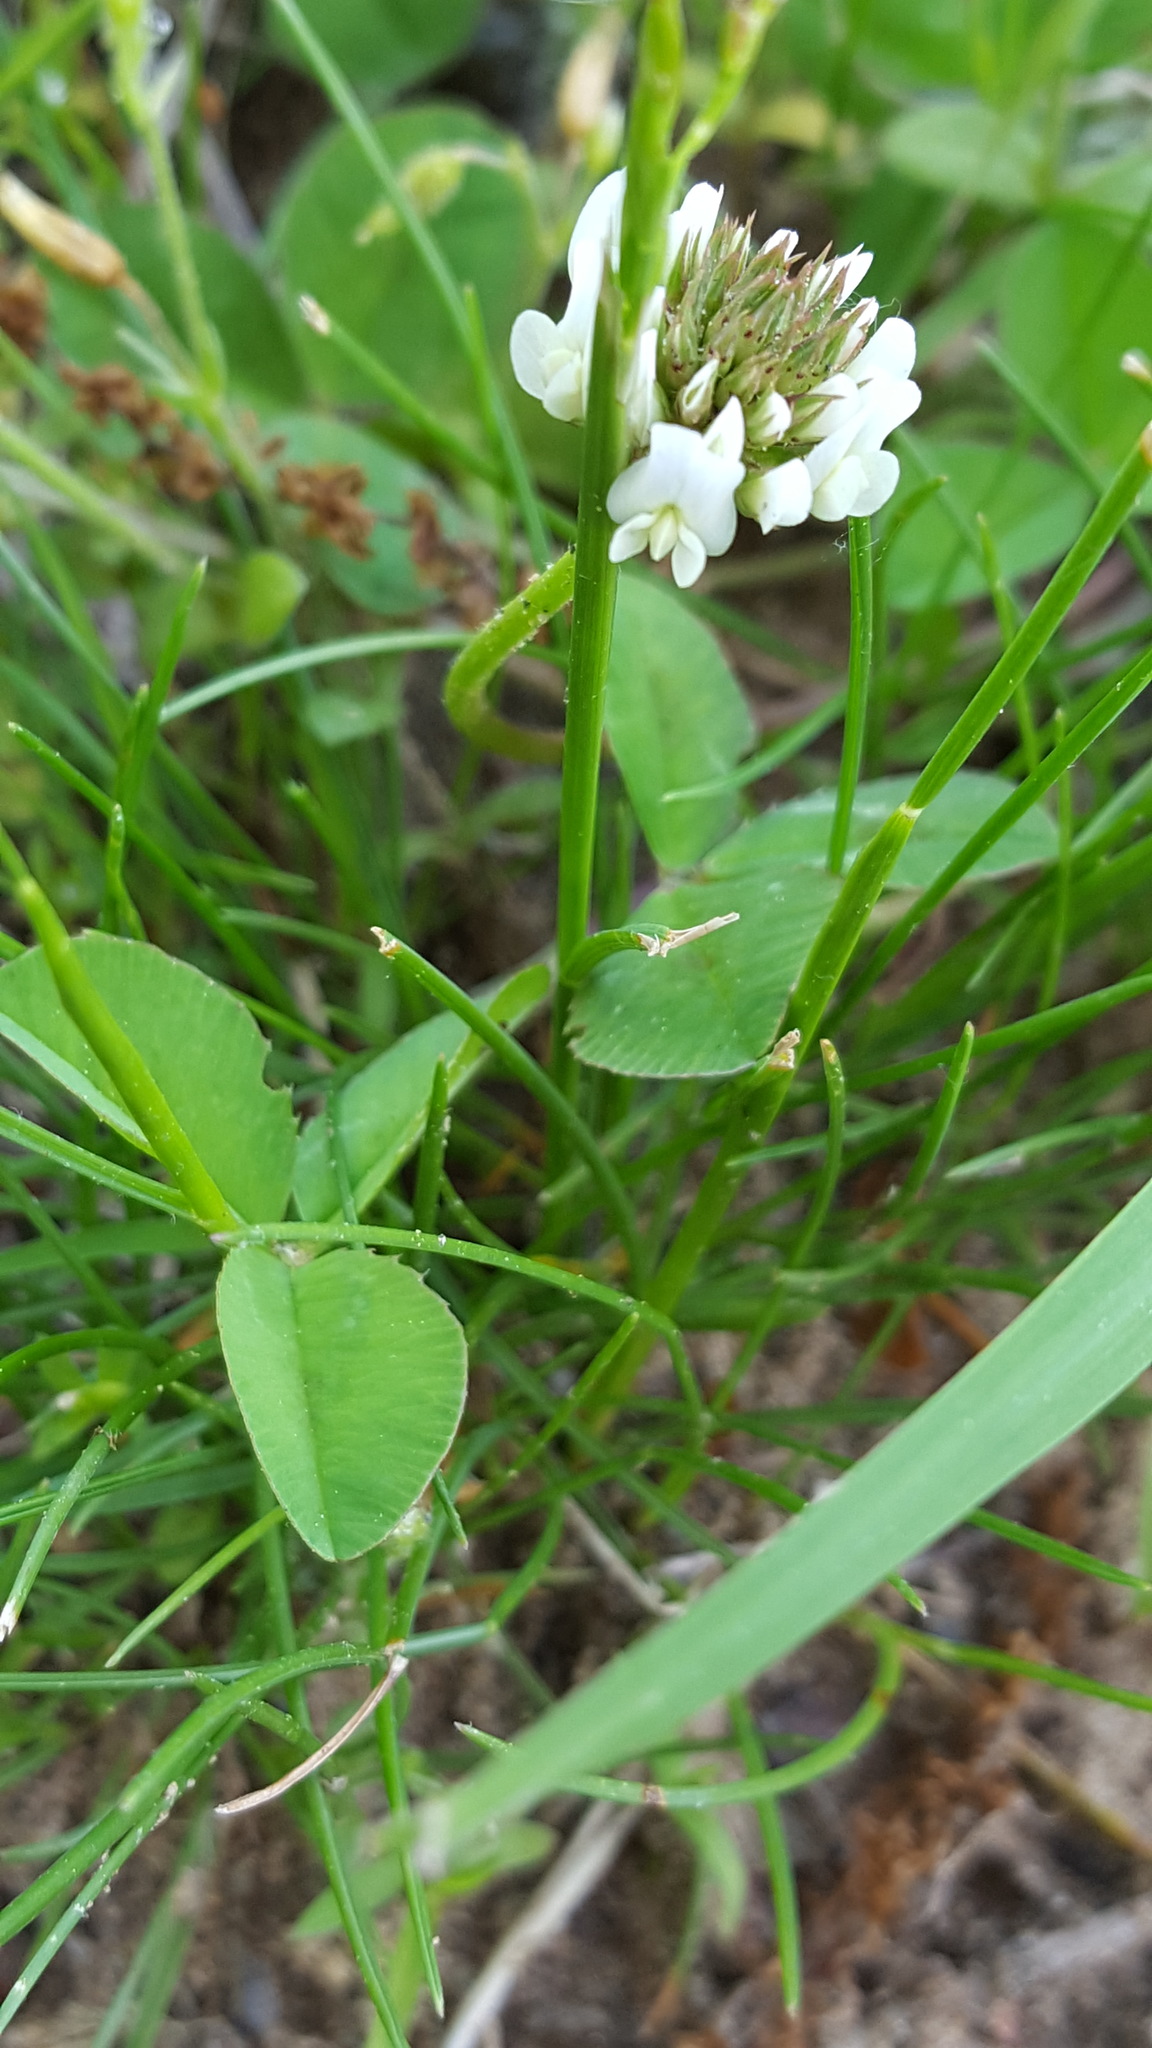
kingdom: Plantae
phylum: Tracheophyta
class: Magnoliopsida
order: Fabales
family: Fabaceae
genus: Trifolium
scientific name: Trifolium repens
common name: White clover
